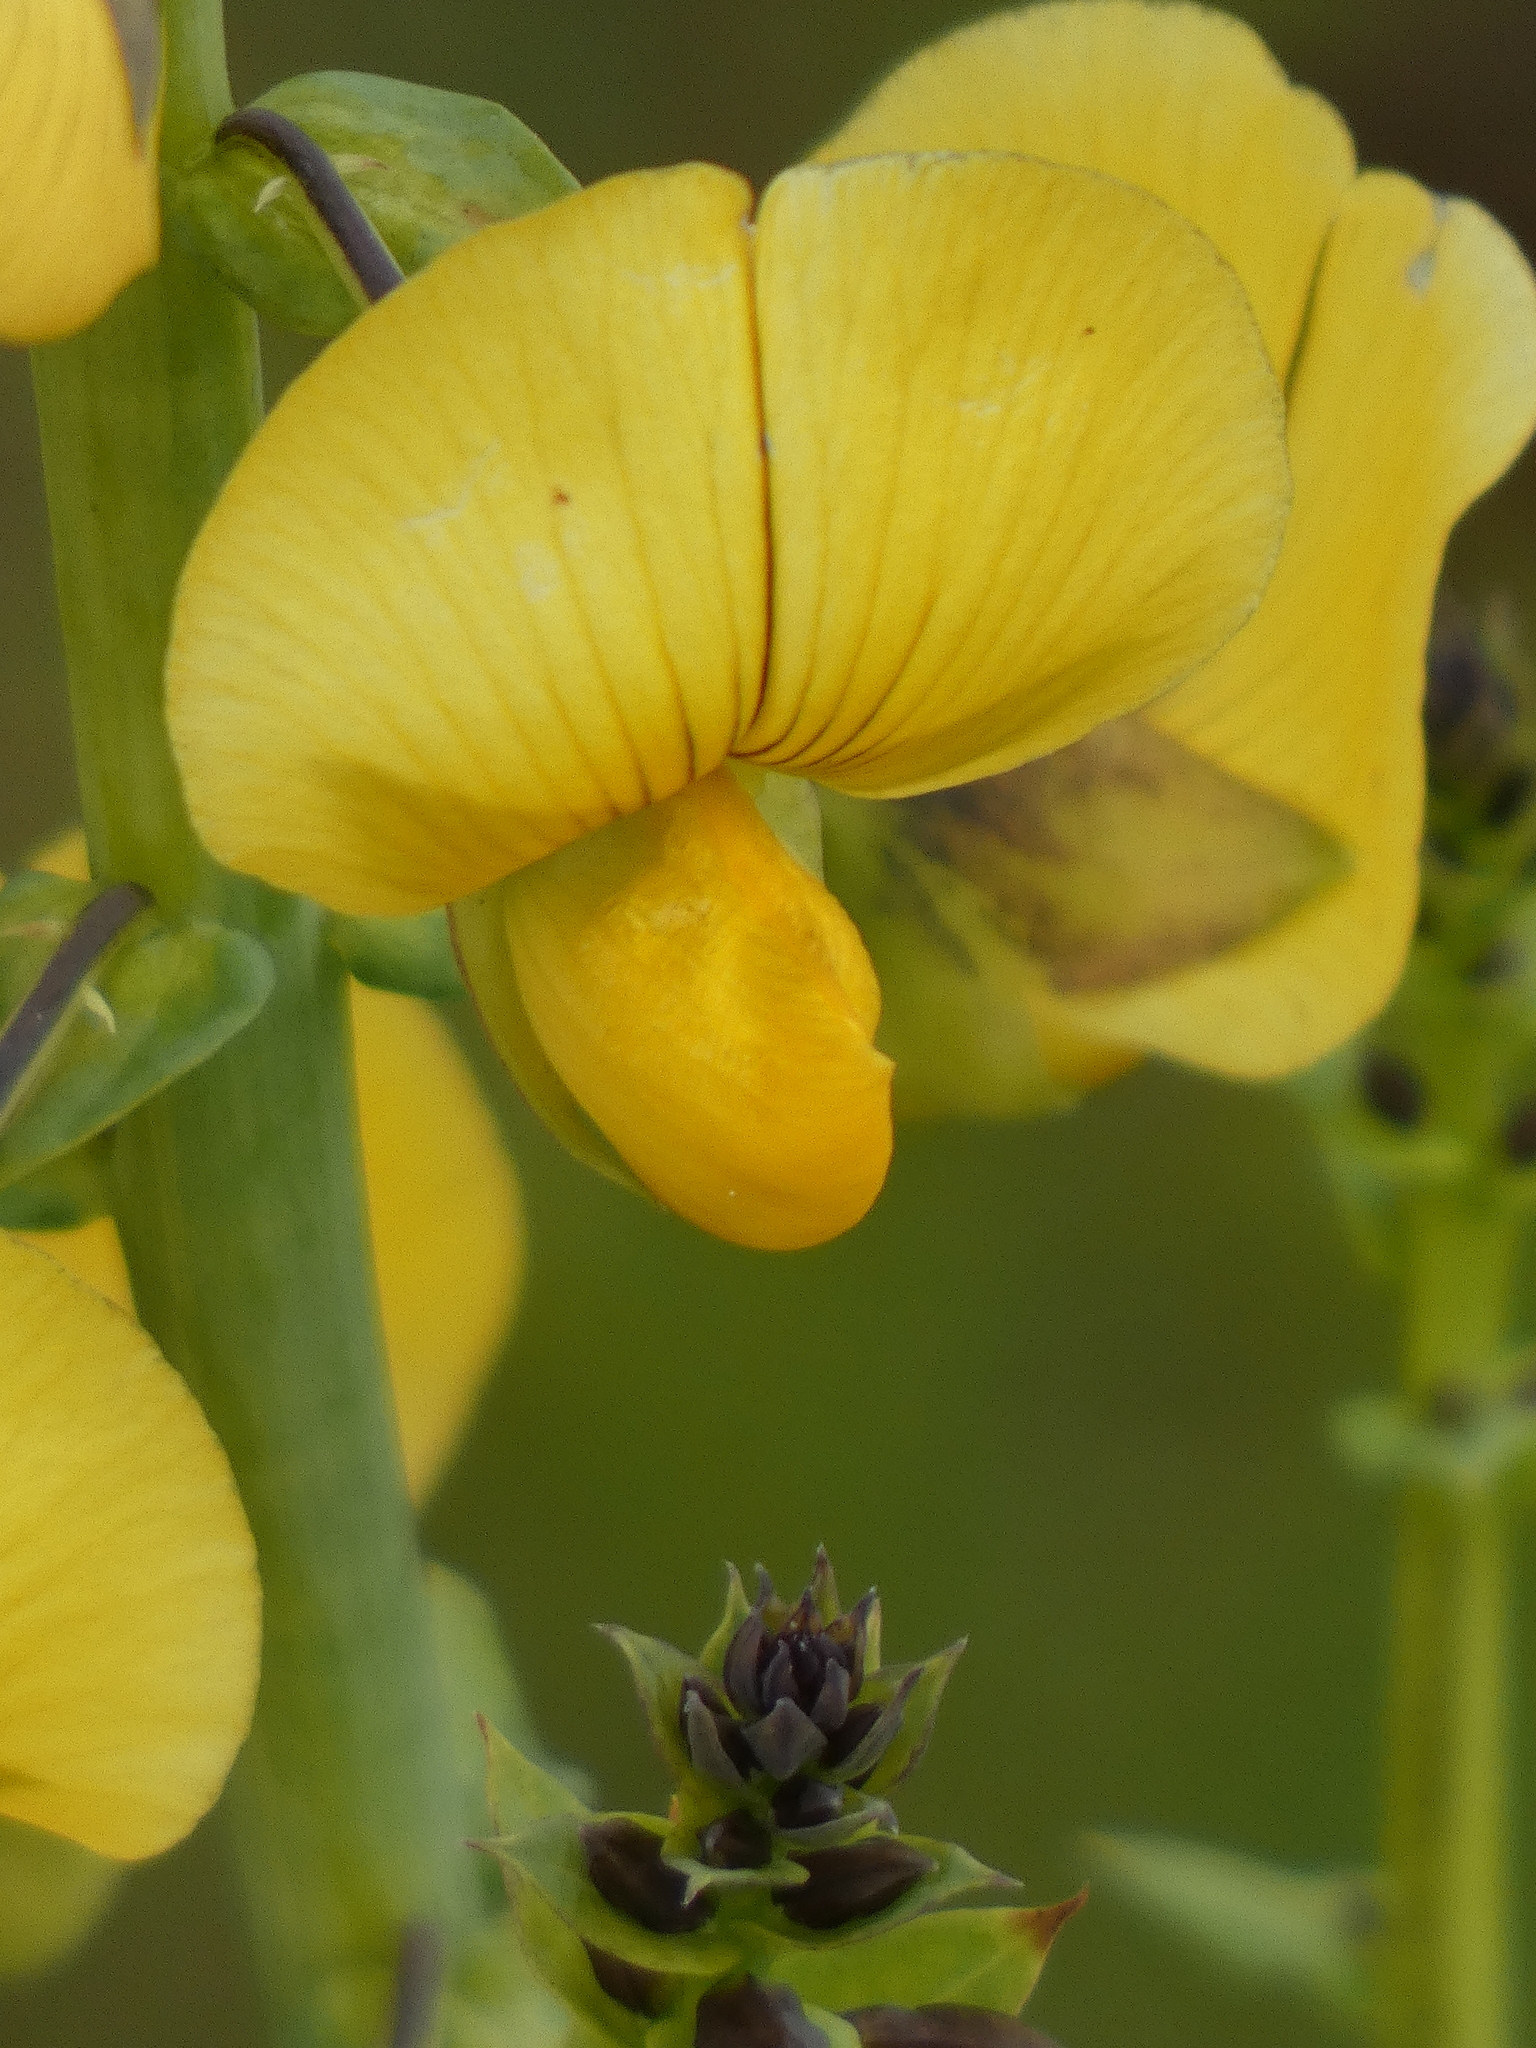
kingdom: Plantae
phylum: Tracheophyta
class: Magnoliopsida
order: Fabales
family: Fabaceae
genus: Crotalaria
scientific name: Crotalaria spectabilis
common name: Showy rattlebox
